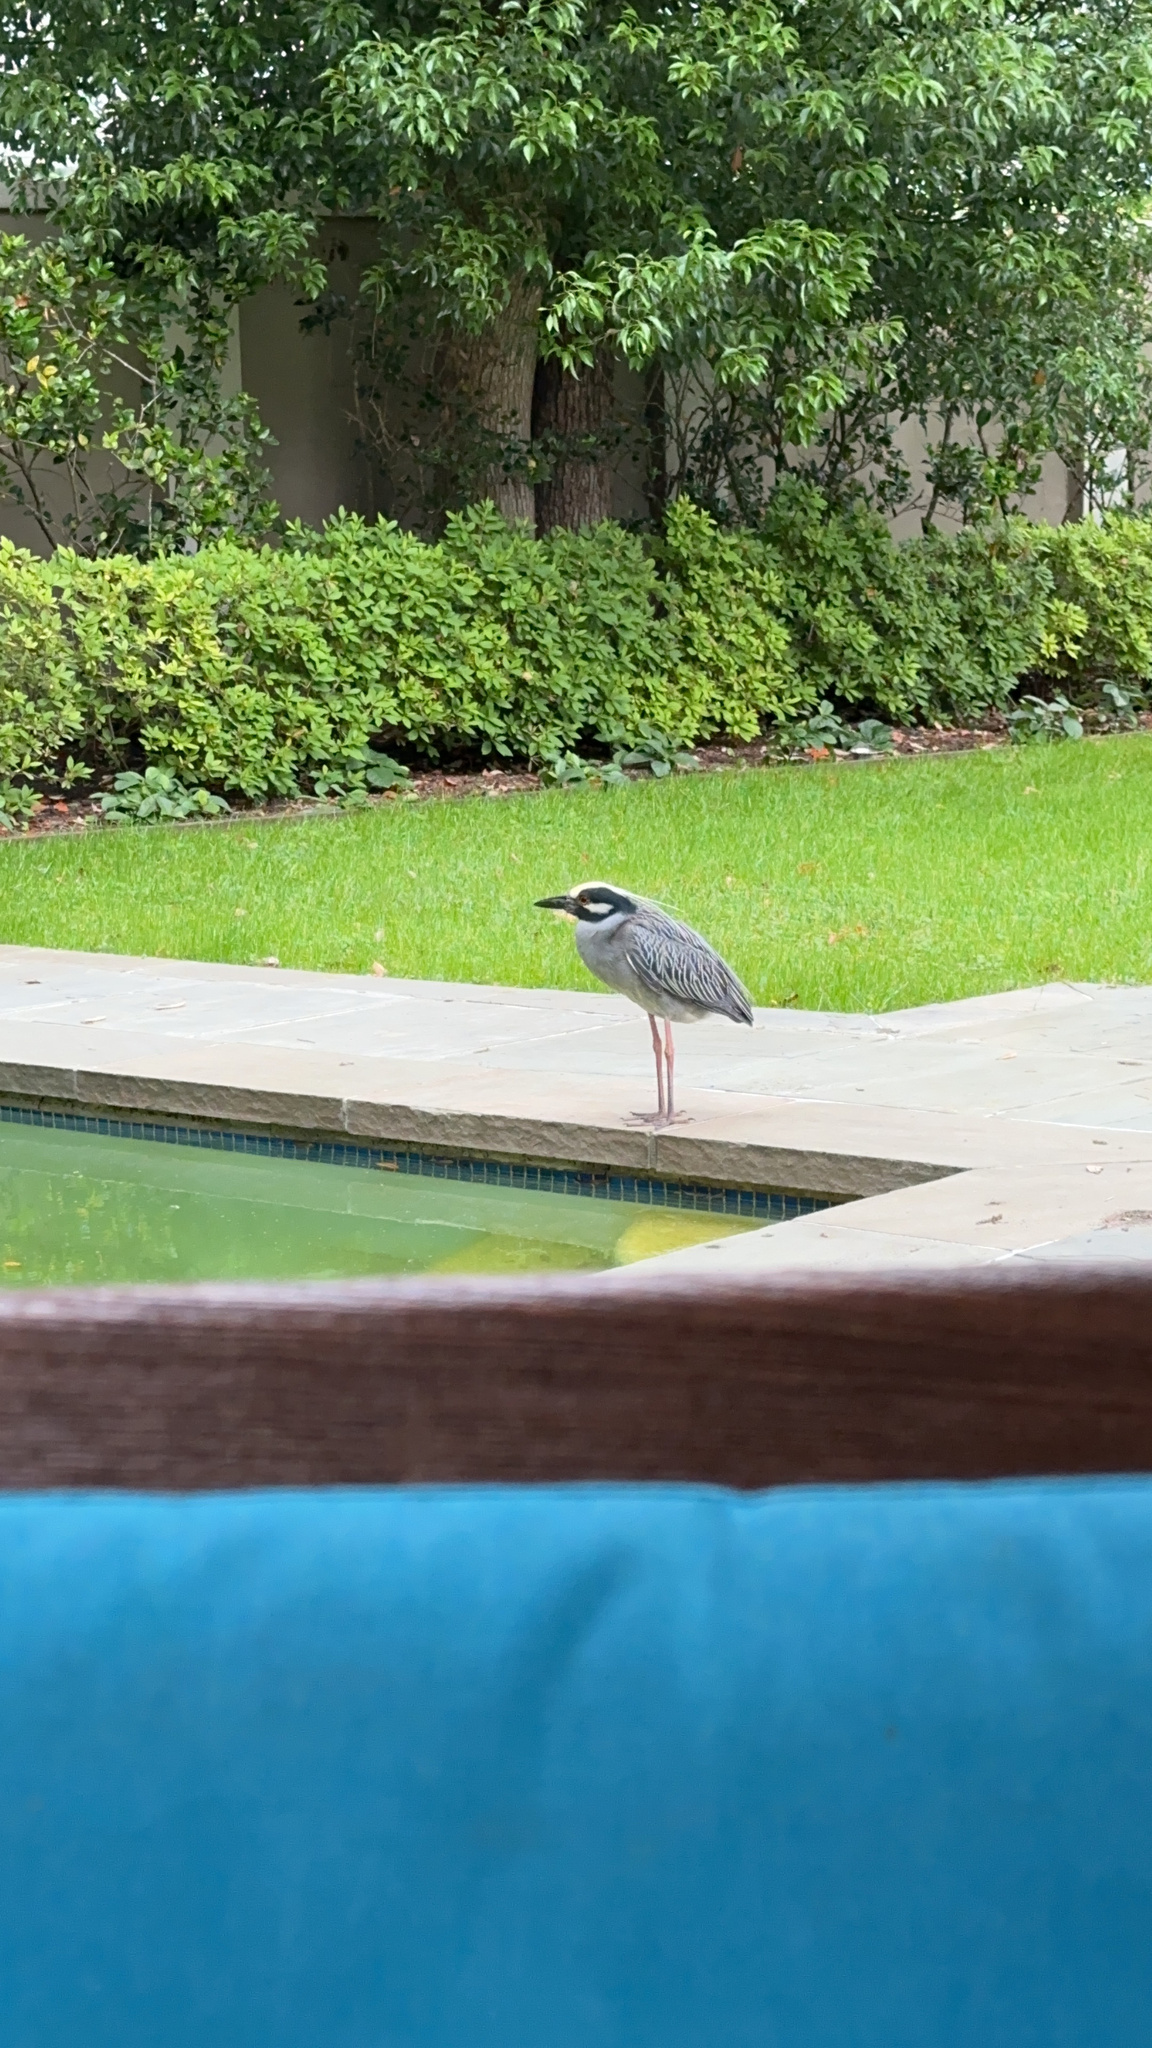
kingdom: Animalia
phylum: Chordata
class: Aves
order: Pelecaniformes
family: Ardeidae
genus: Nyctanassa
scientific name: Nyctanassa violacea
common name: Yellow-crowned night heron
